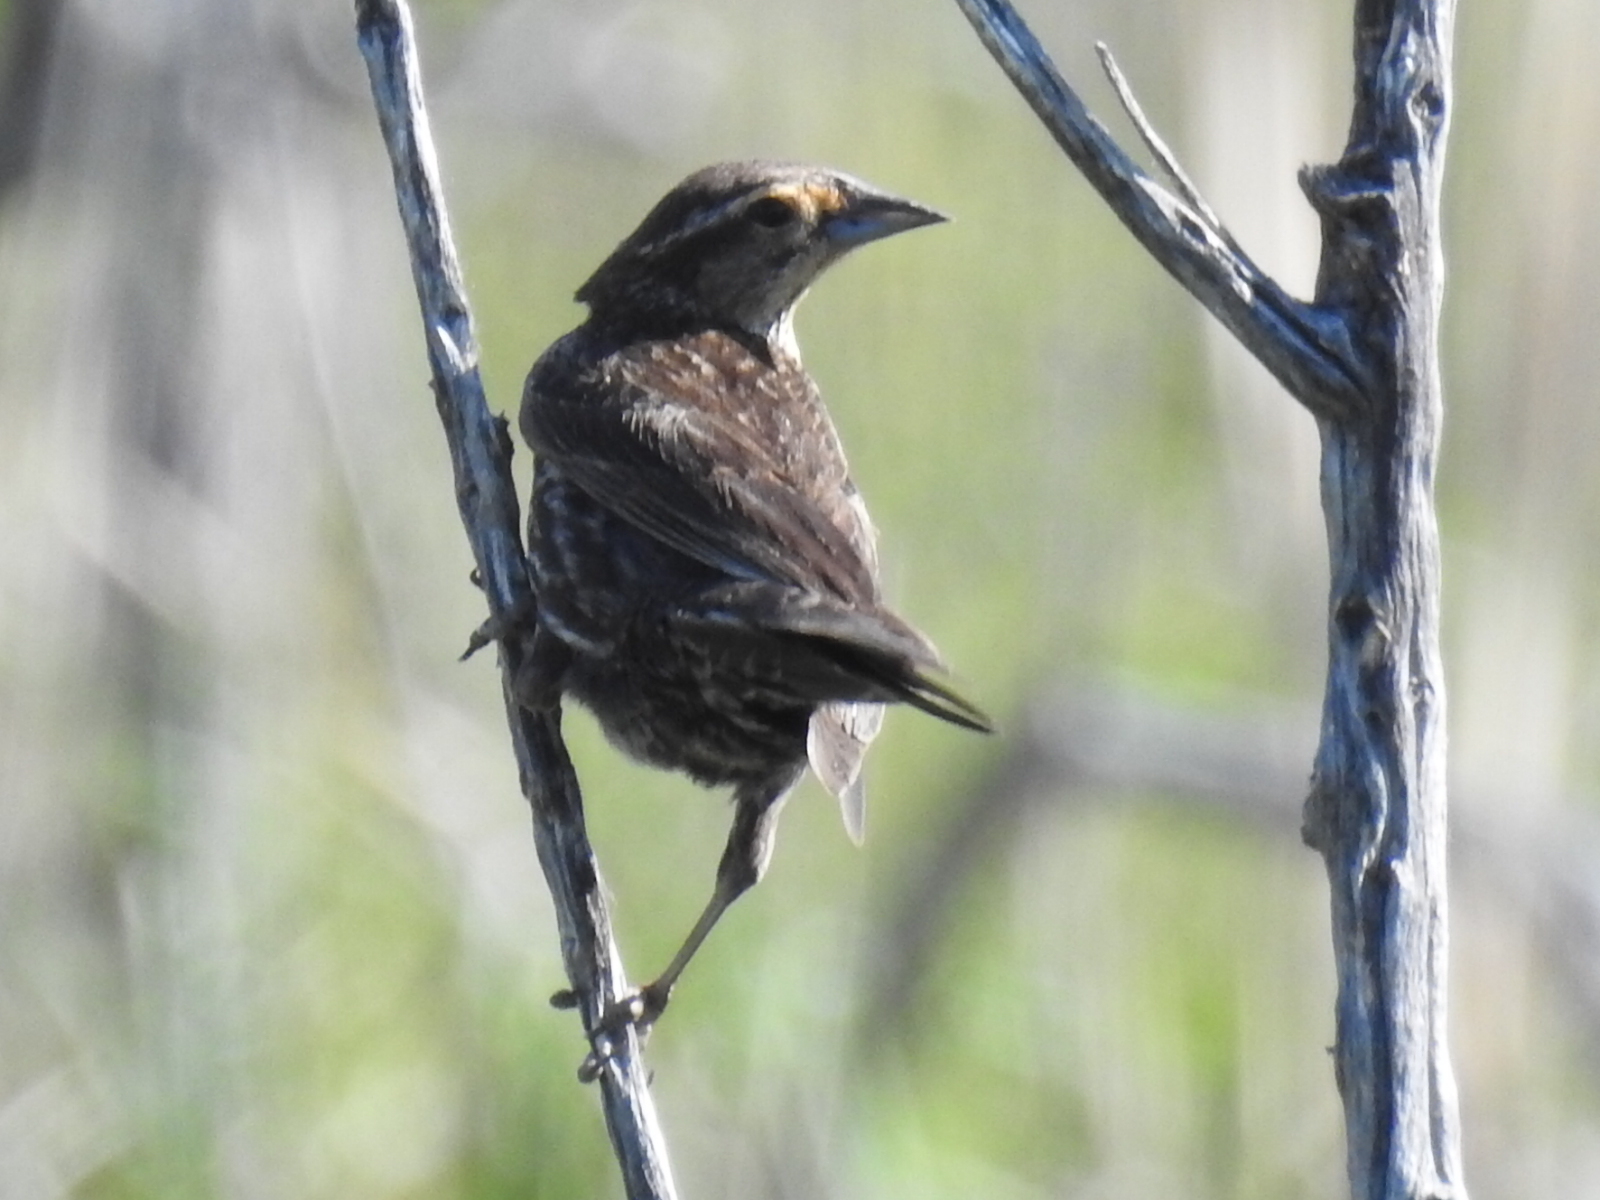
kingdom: Animalia
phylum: Chordata
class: Aves
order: Passeriformes
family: Icteridae
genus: Agelaius
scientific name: Agelaius phoeniceus
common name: Red-winged blackbird
